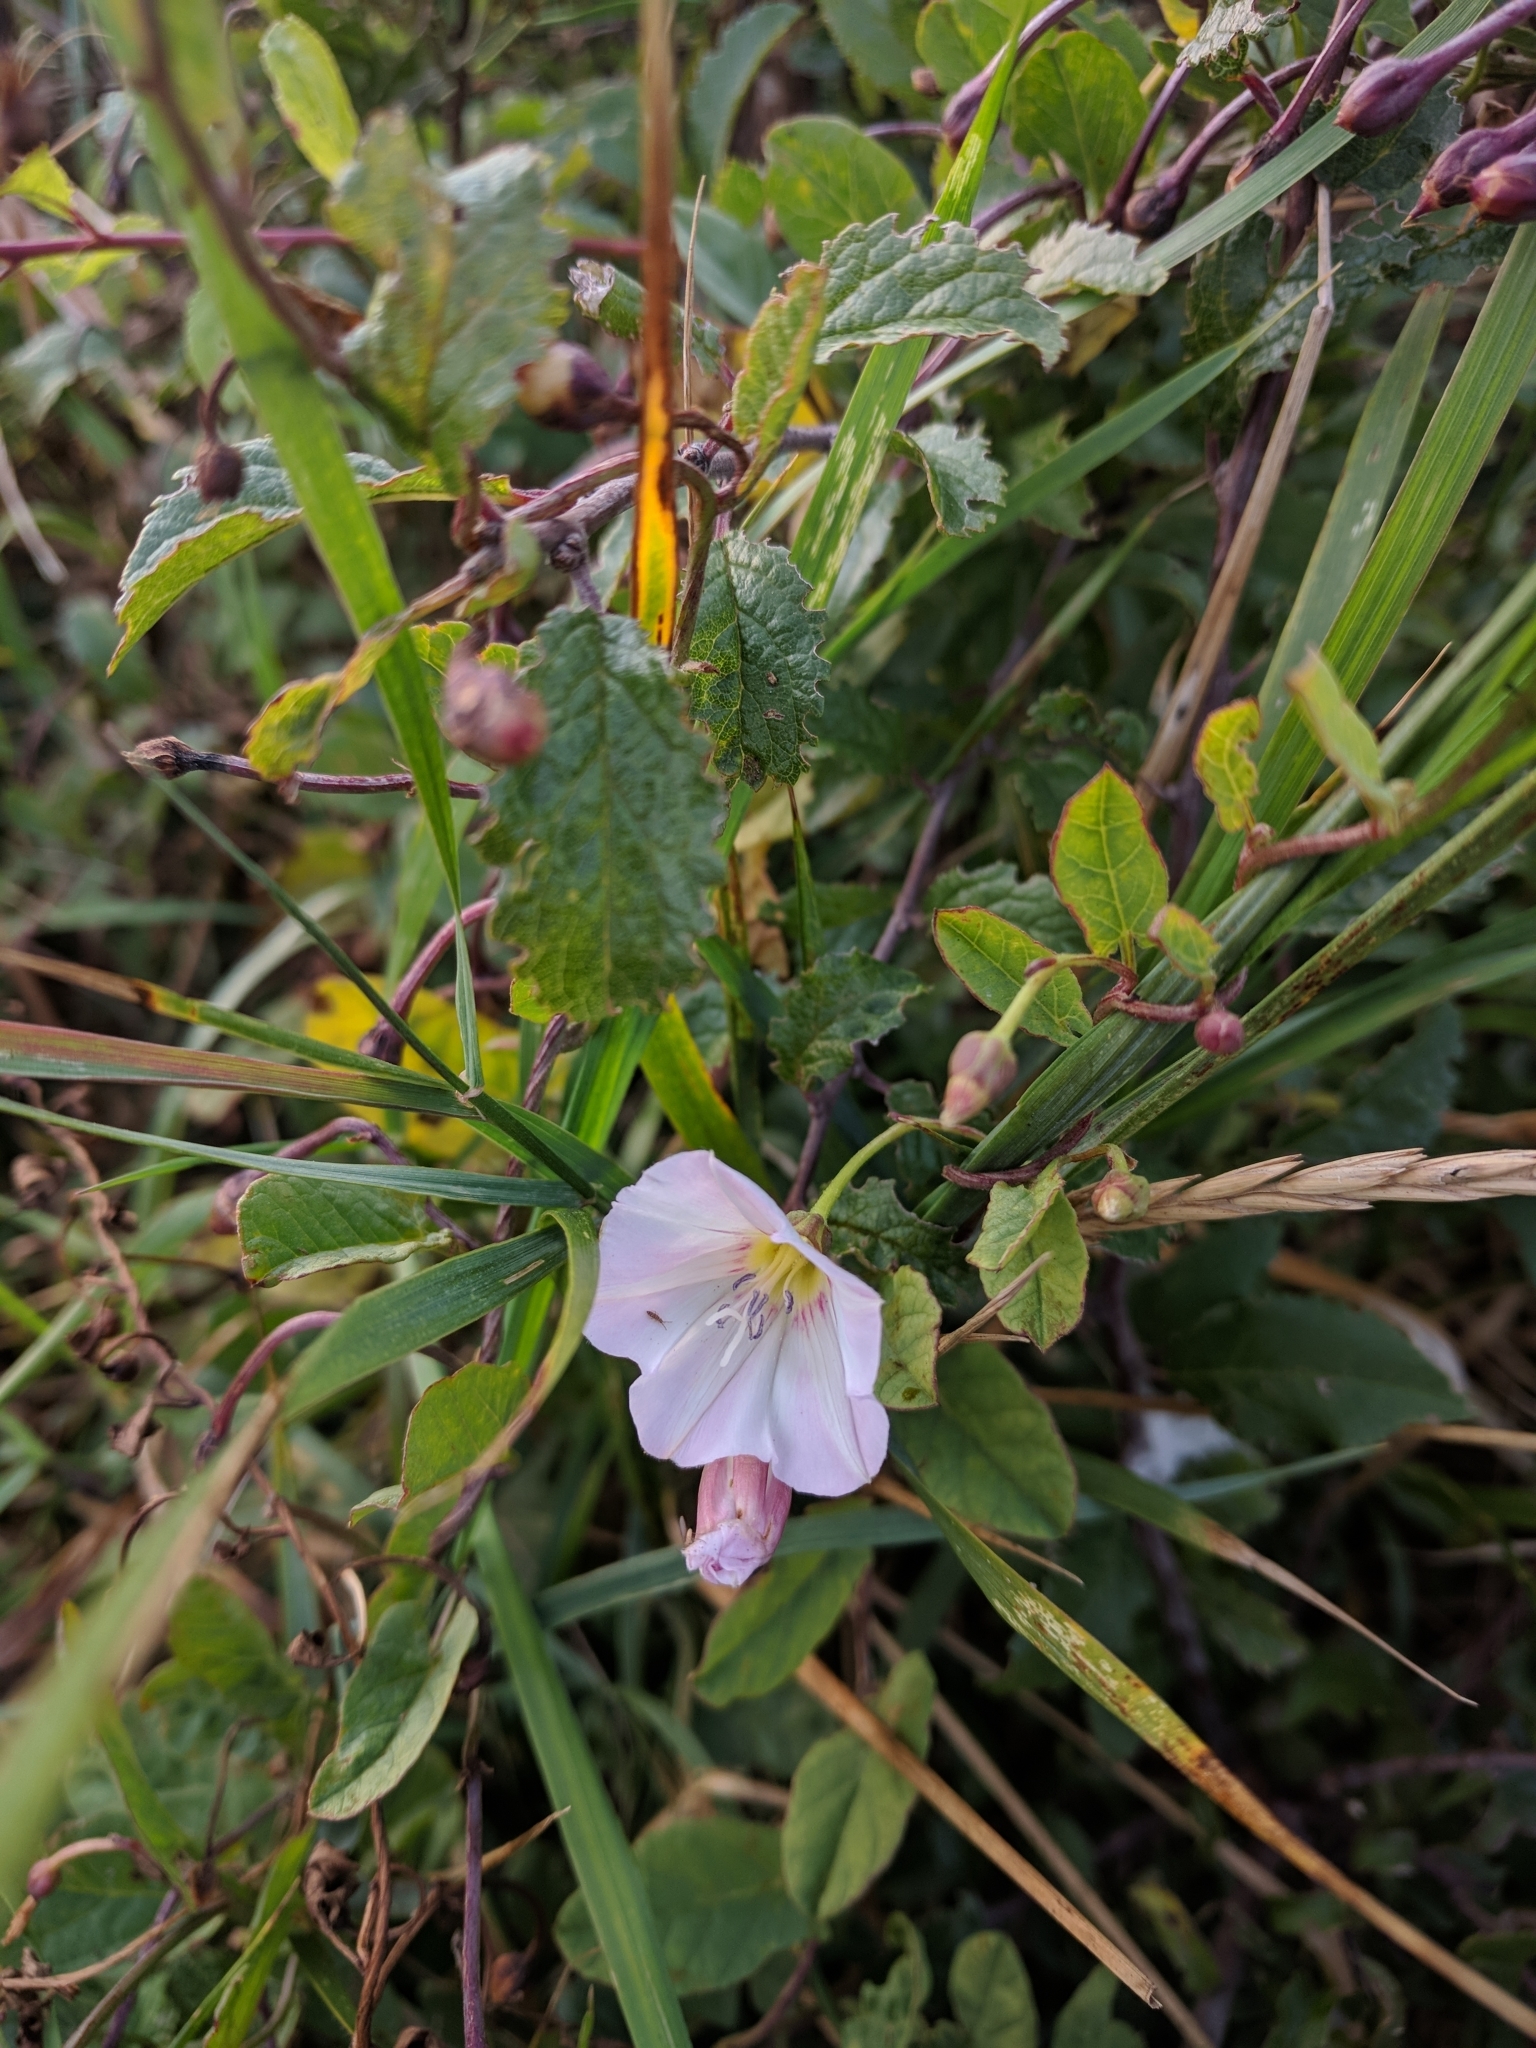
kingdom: Plantae
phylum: Tracheophyta
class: Magnoliopsida
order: Solanales
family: Convolvulaceae
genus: Convolvulus
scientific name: Convolvulus arvensis
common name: Field bindweed
